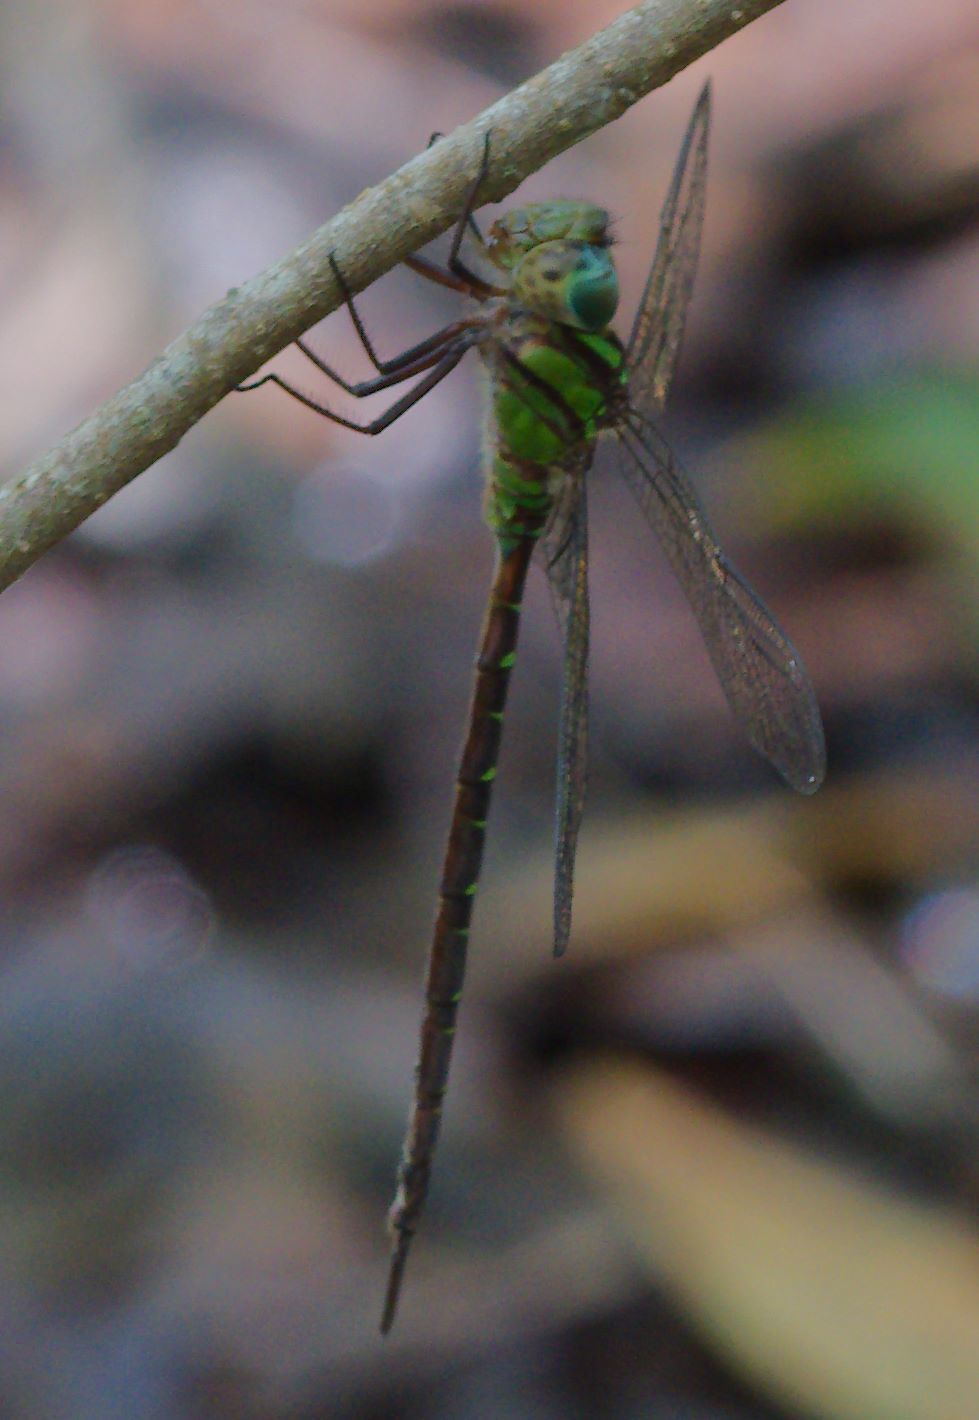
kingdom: Animalia
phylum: Arthropoda
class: Insecta
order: Odonata
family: Aeshnidae
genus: Triacanthagyna
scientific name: Triacanthagyna trifida
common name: Phantom darner
